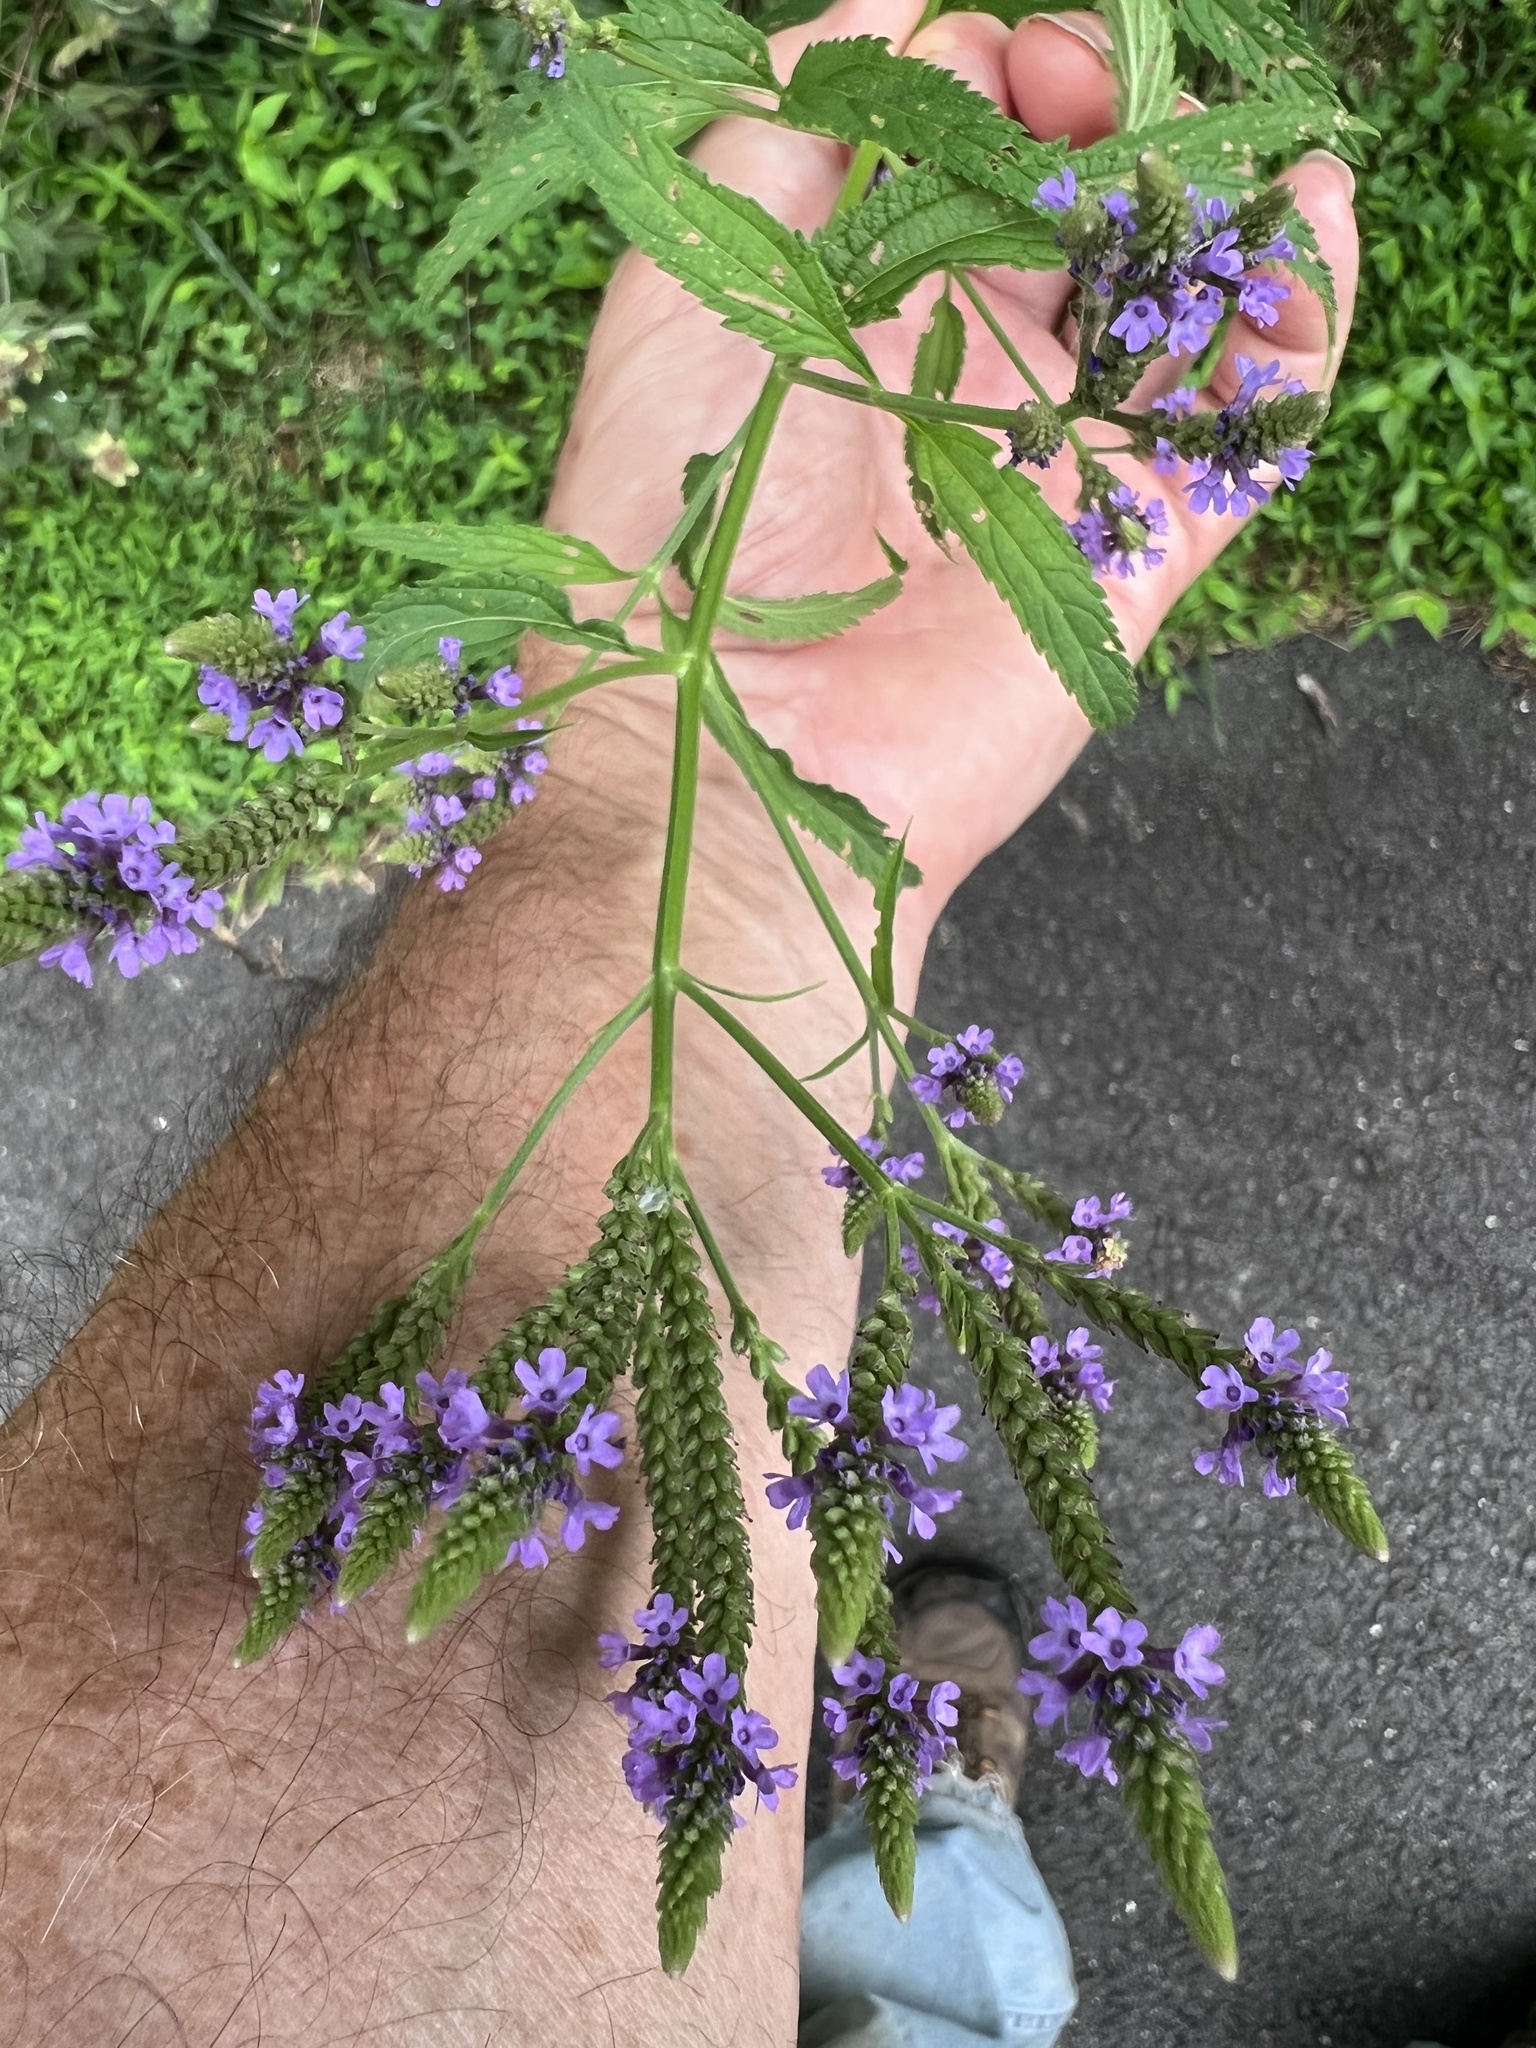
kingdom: Plantae
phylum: Tracheophyta
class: Magnoliopsida
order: Lamiales
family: Verbenaceae
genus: Verbena
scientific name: Verbena hastata
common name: American blue vervain
